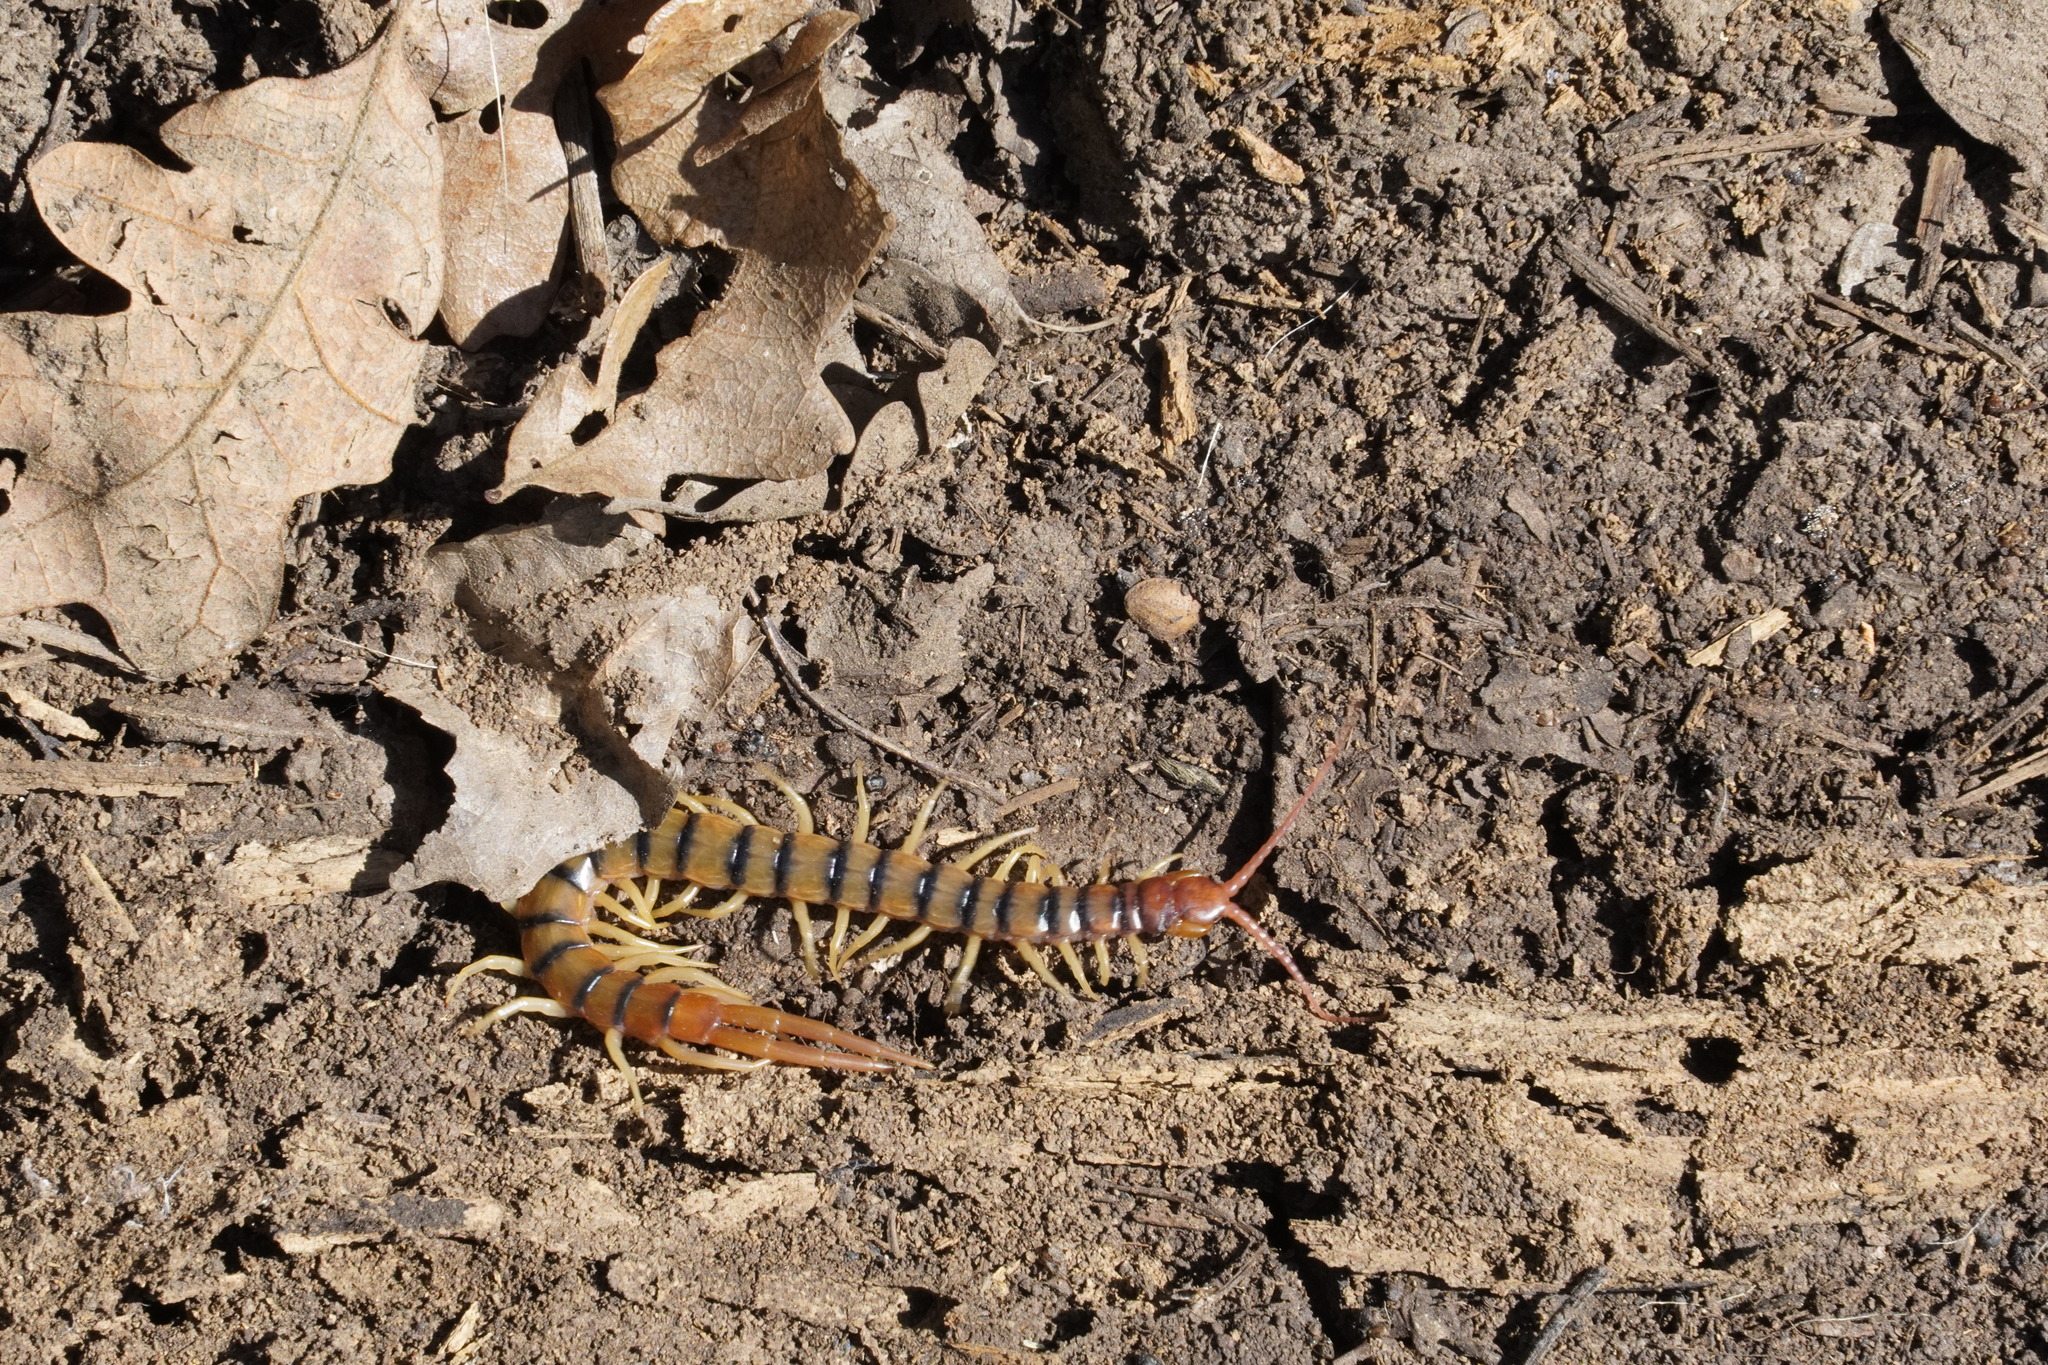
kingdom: Animalia
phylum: Arthropoda
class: Chilopoda
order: Scolopendromorpha
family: Scolopendridae
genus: Scolopendra
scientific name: Scolopendra polymorpha
